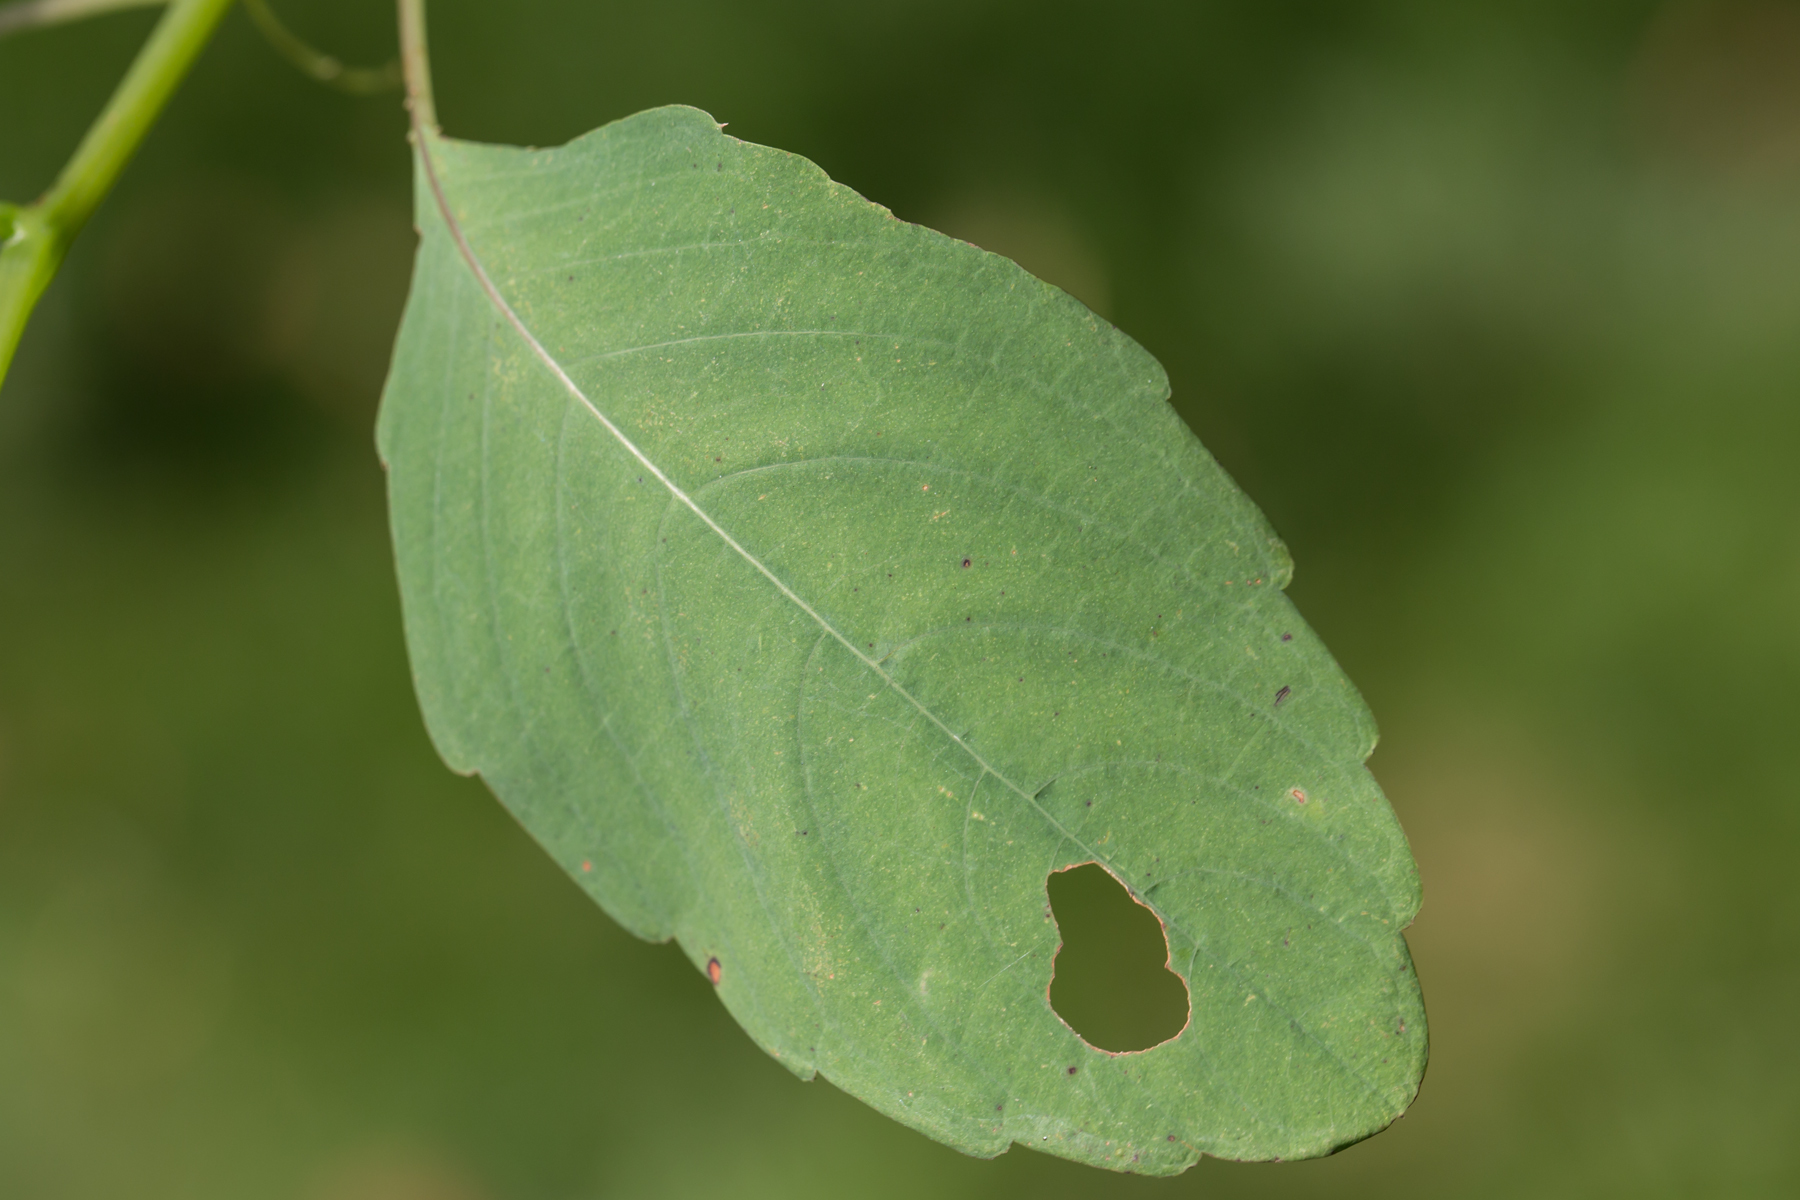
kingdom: Plantae
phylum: Tracheophyta
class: Magnoliopsida
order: Ericales
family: Balsaminaceae
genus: Impatiens
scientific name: Impatiens capensis
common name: Orange balsam
